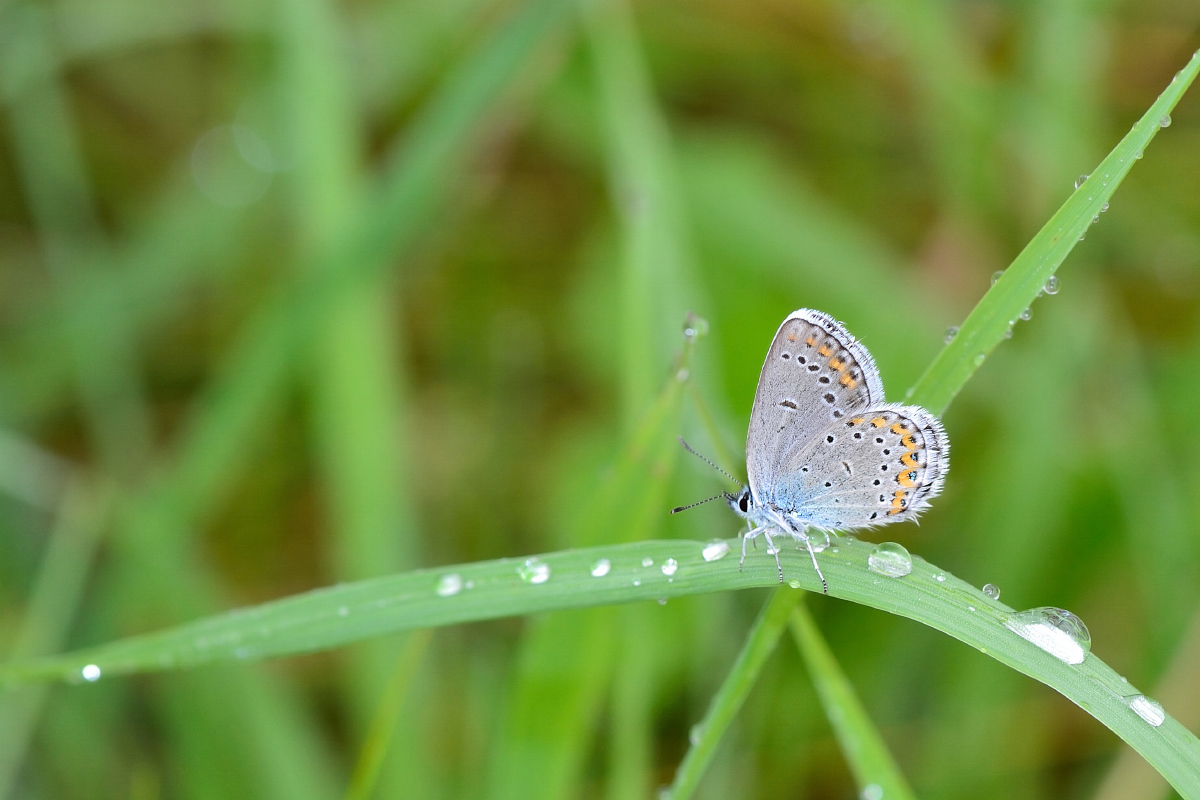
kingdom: Animalia
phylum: Arthropoda
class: Insecta
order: Lepidoptera
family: Lycaenidae
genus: Plebejus
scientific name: Plebejus argyrognomon
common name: Reverdin's blue
